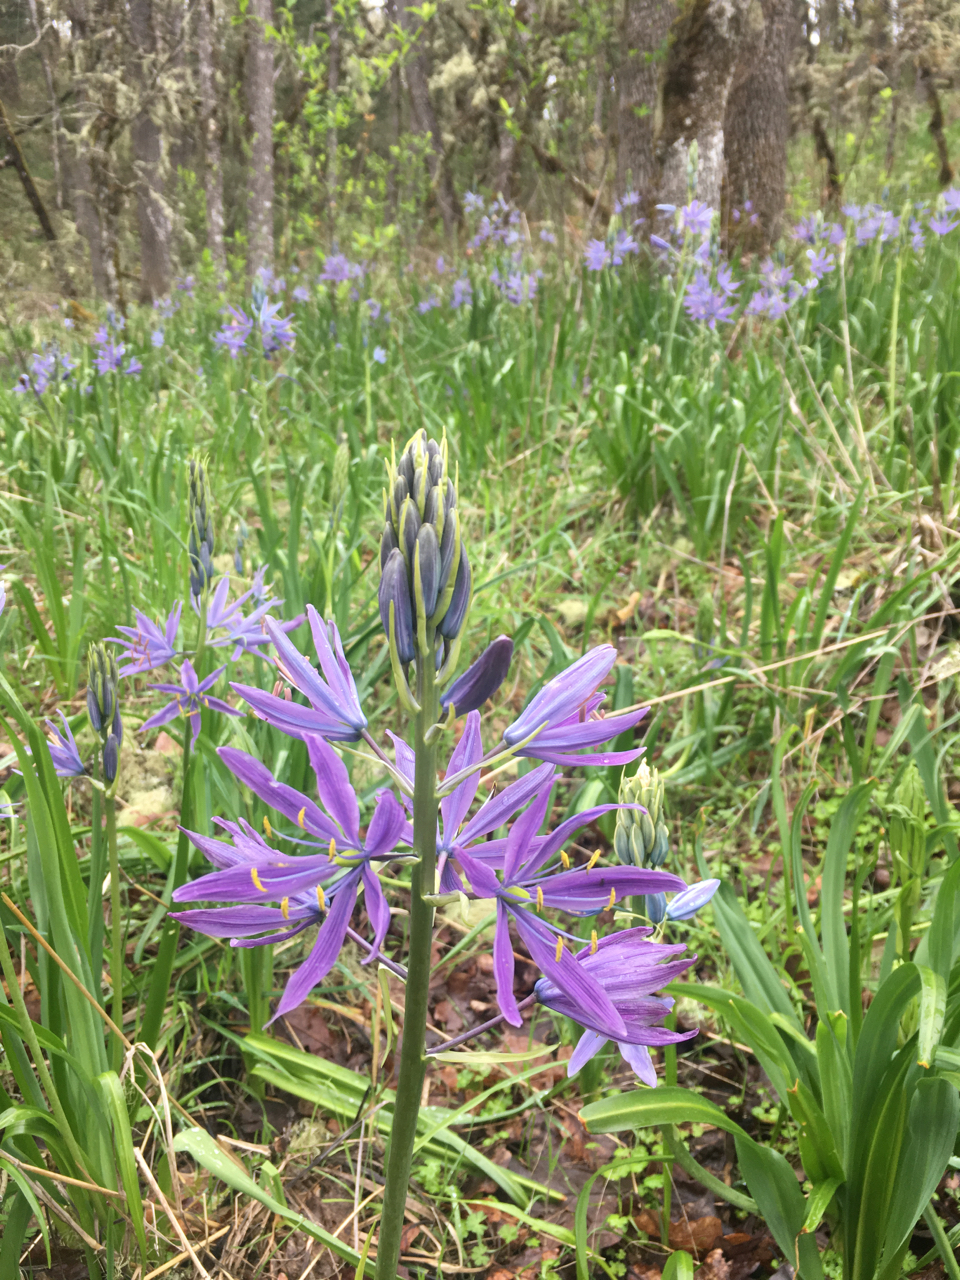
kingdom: Plantae
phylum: Tracheophyta
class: Liliopsida
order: Asparagales
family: Asparagaceae
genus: Camassia
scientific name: Camassia leichtlinii
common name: Leichtlin's camas
